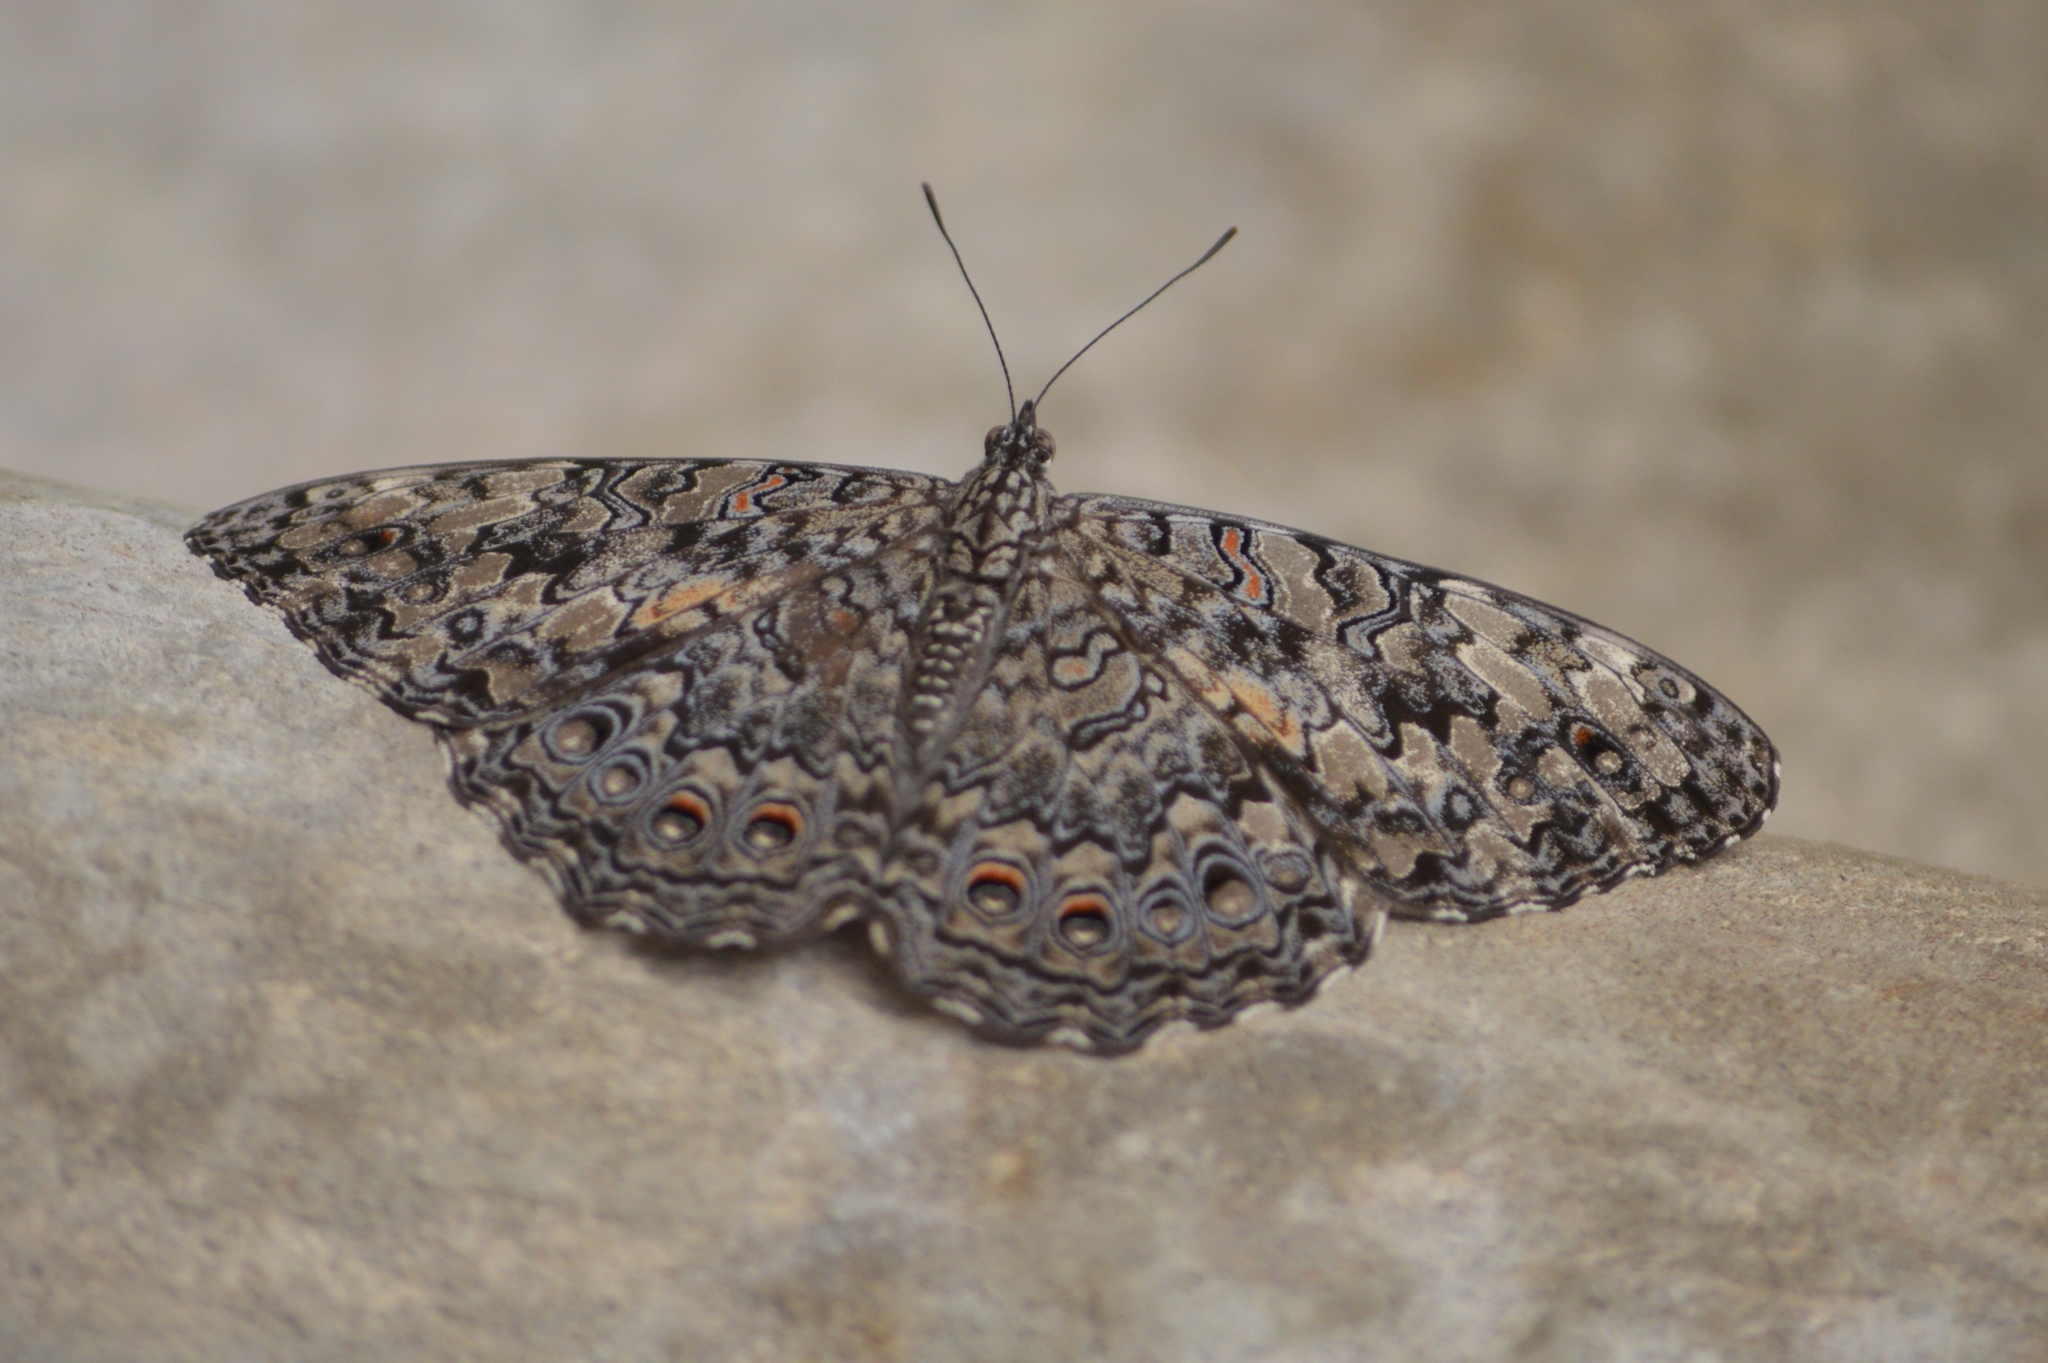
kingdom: Animalia
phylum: Arthropoda
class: Insecta
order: Lepidoptera
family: Nymphalidae
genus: Hamadryas
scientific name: Hamadryas februa
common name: Gray cracker
